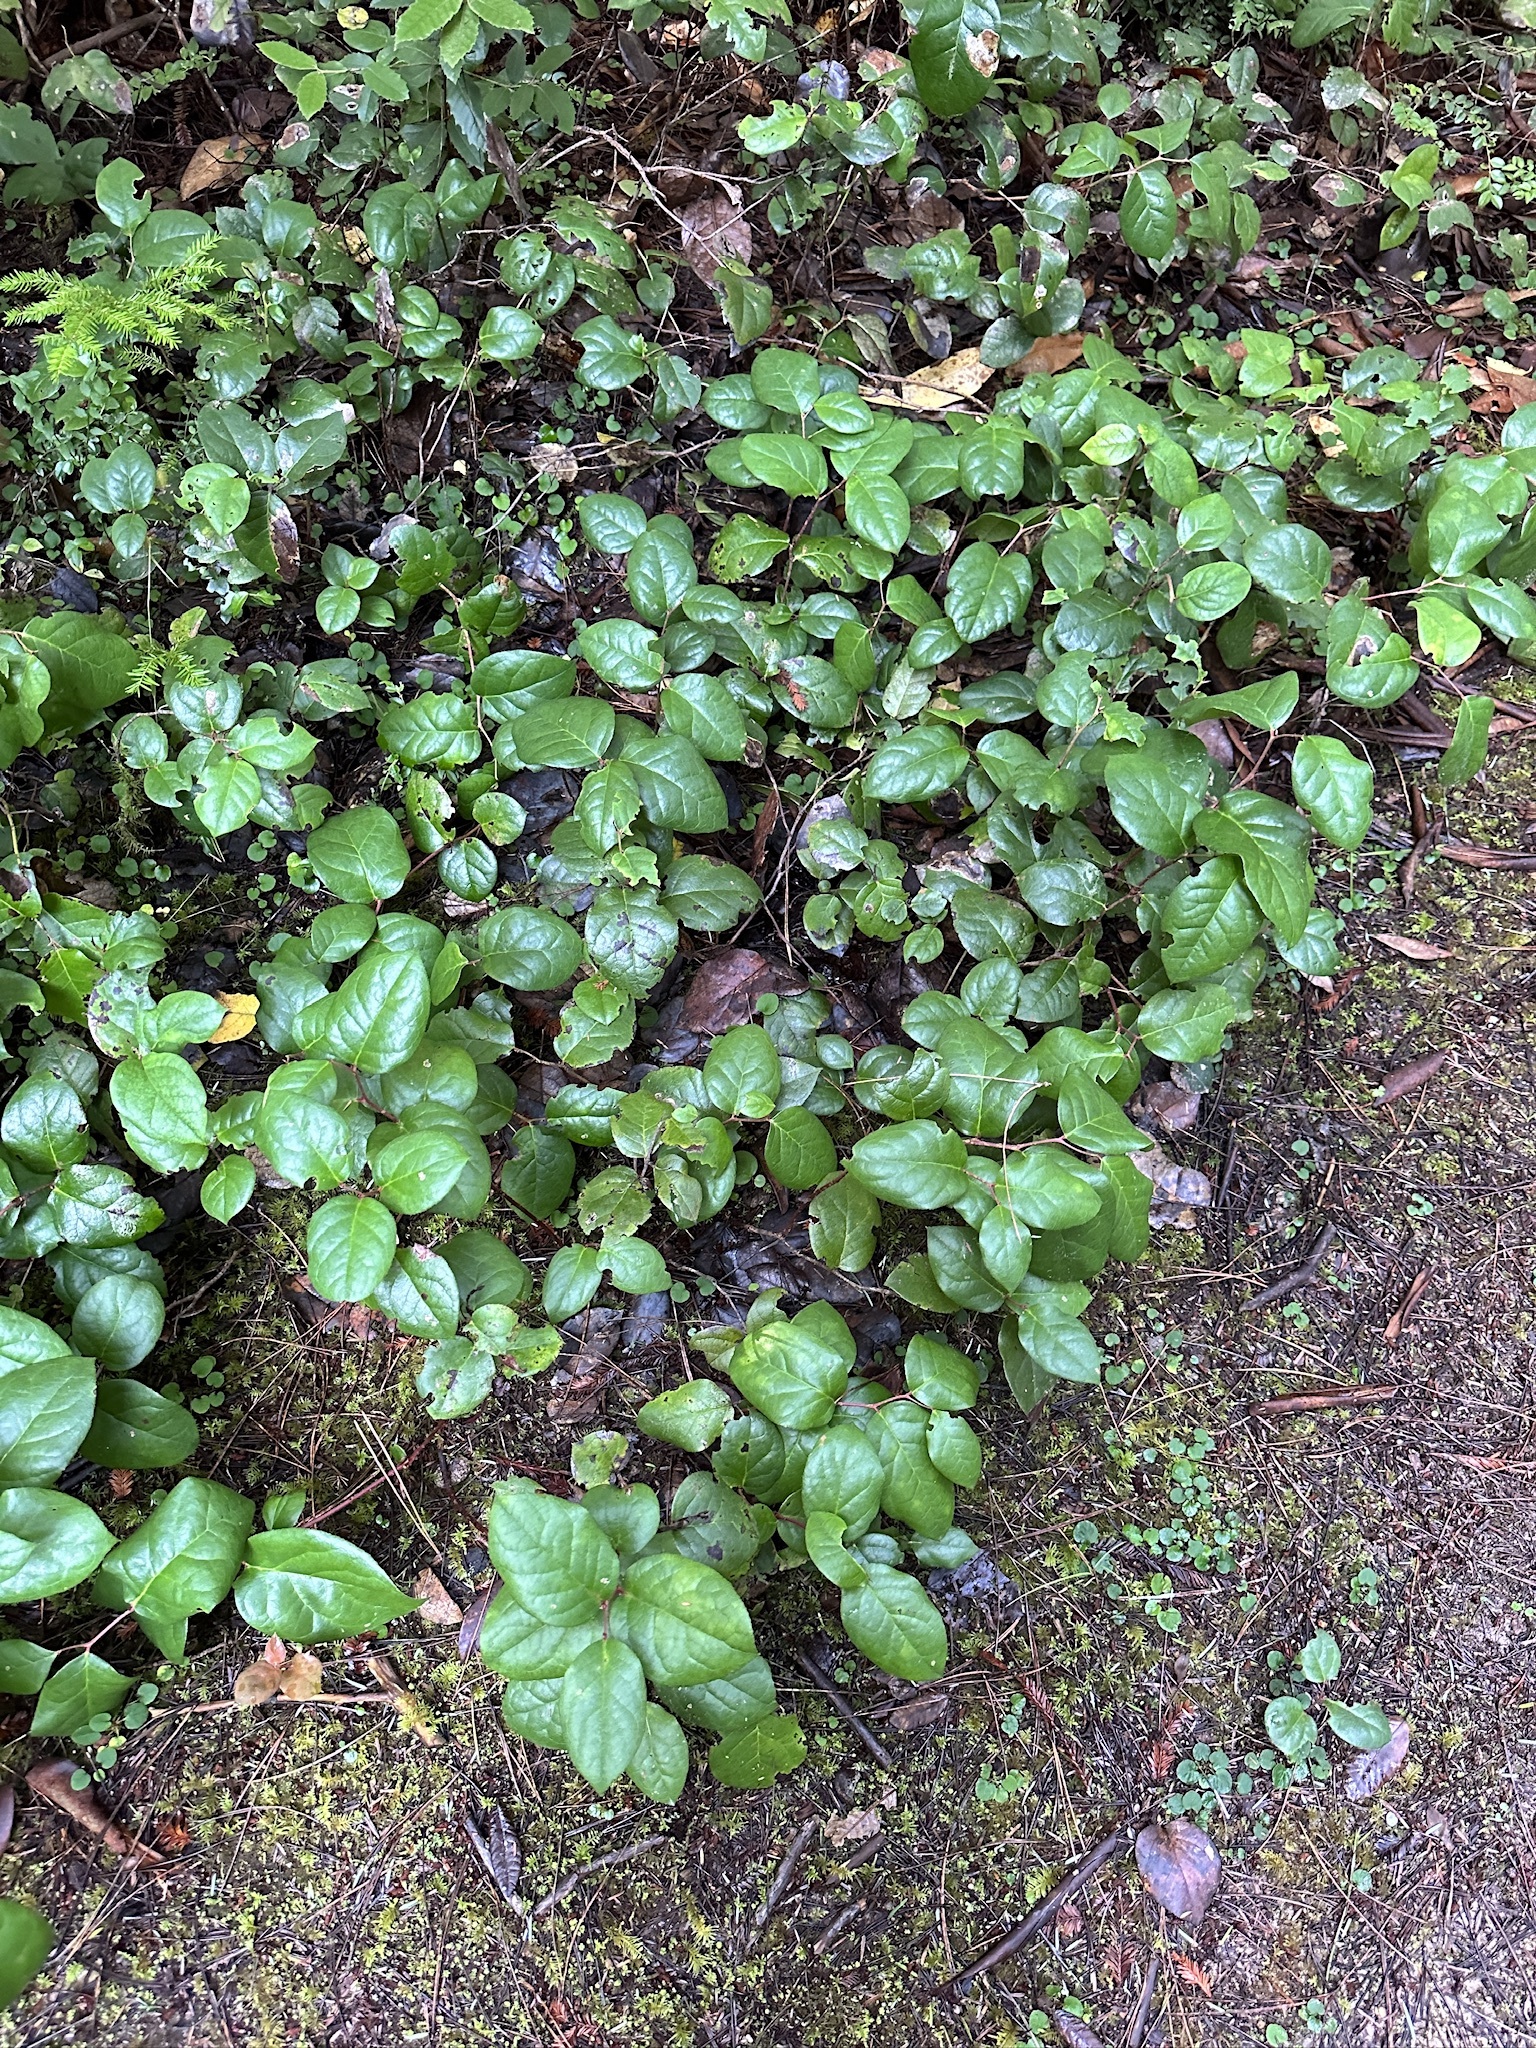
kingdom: Plantae
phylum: Tracheophyta
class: Magnoliopsida
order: Ericales
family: Ericaceae
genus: Gaultheria
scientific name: Gaultheria shallon
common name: Shallon
